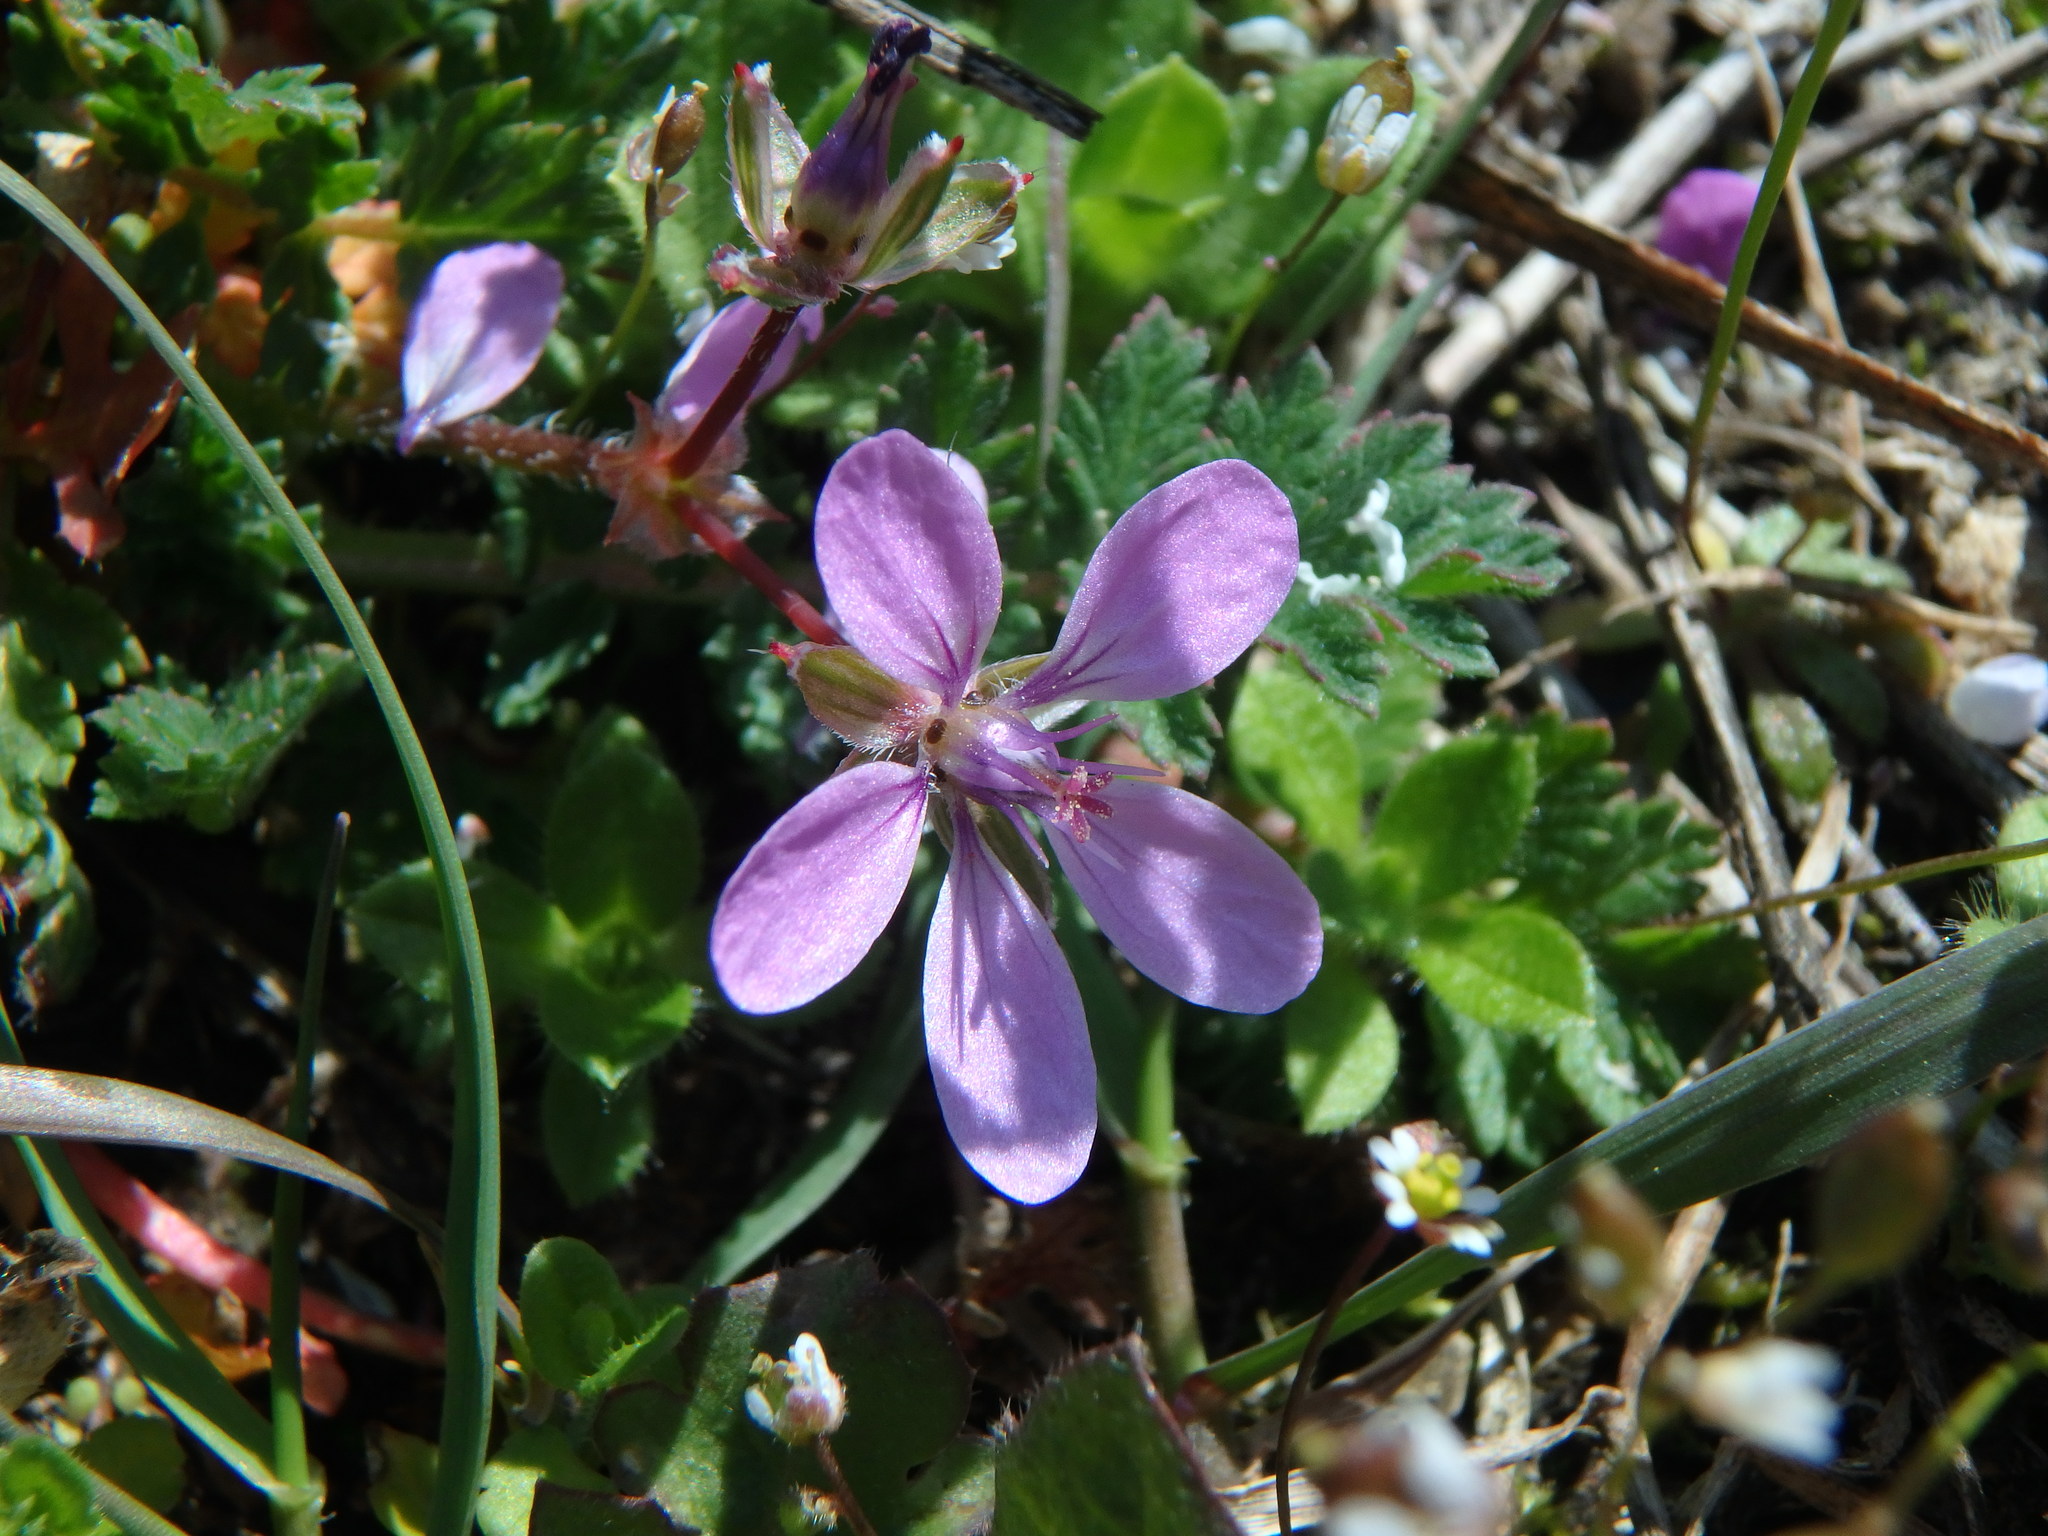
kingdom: Plantae
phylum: Tracheophyta
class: Magnoliopsida
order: Geraniales
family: Geraniaceae
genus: Erodium
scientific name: Erodium cicutarium
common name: Common stork's-bill
